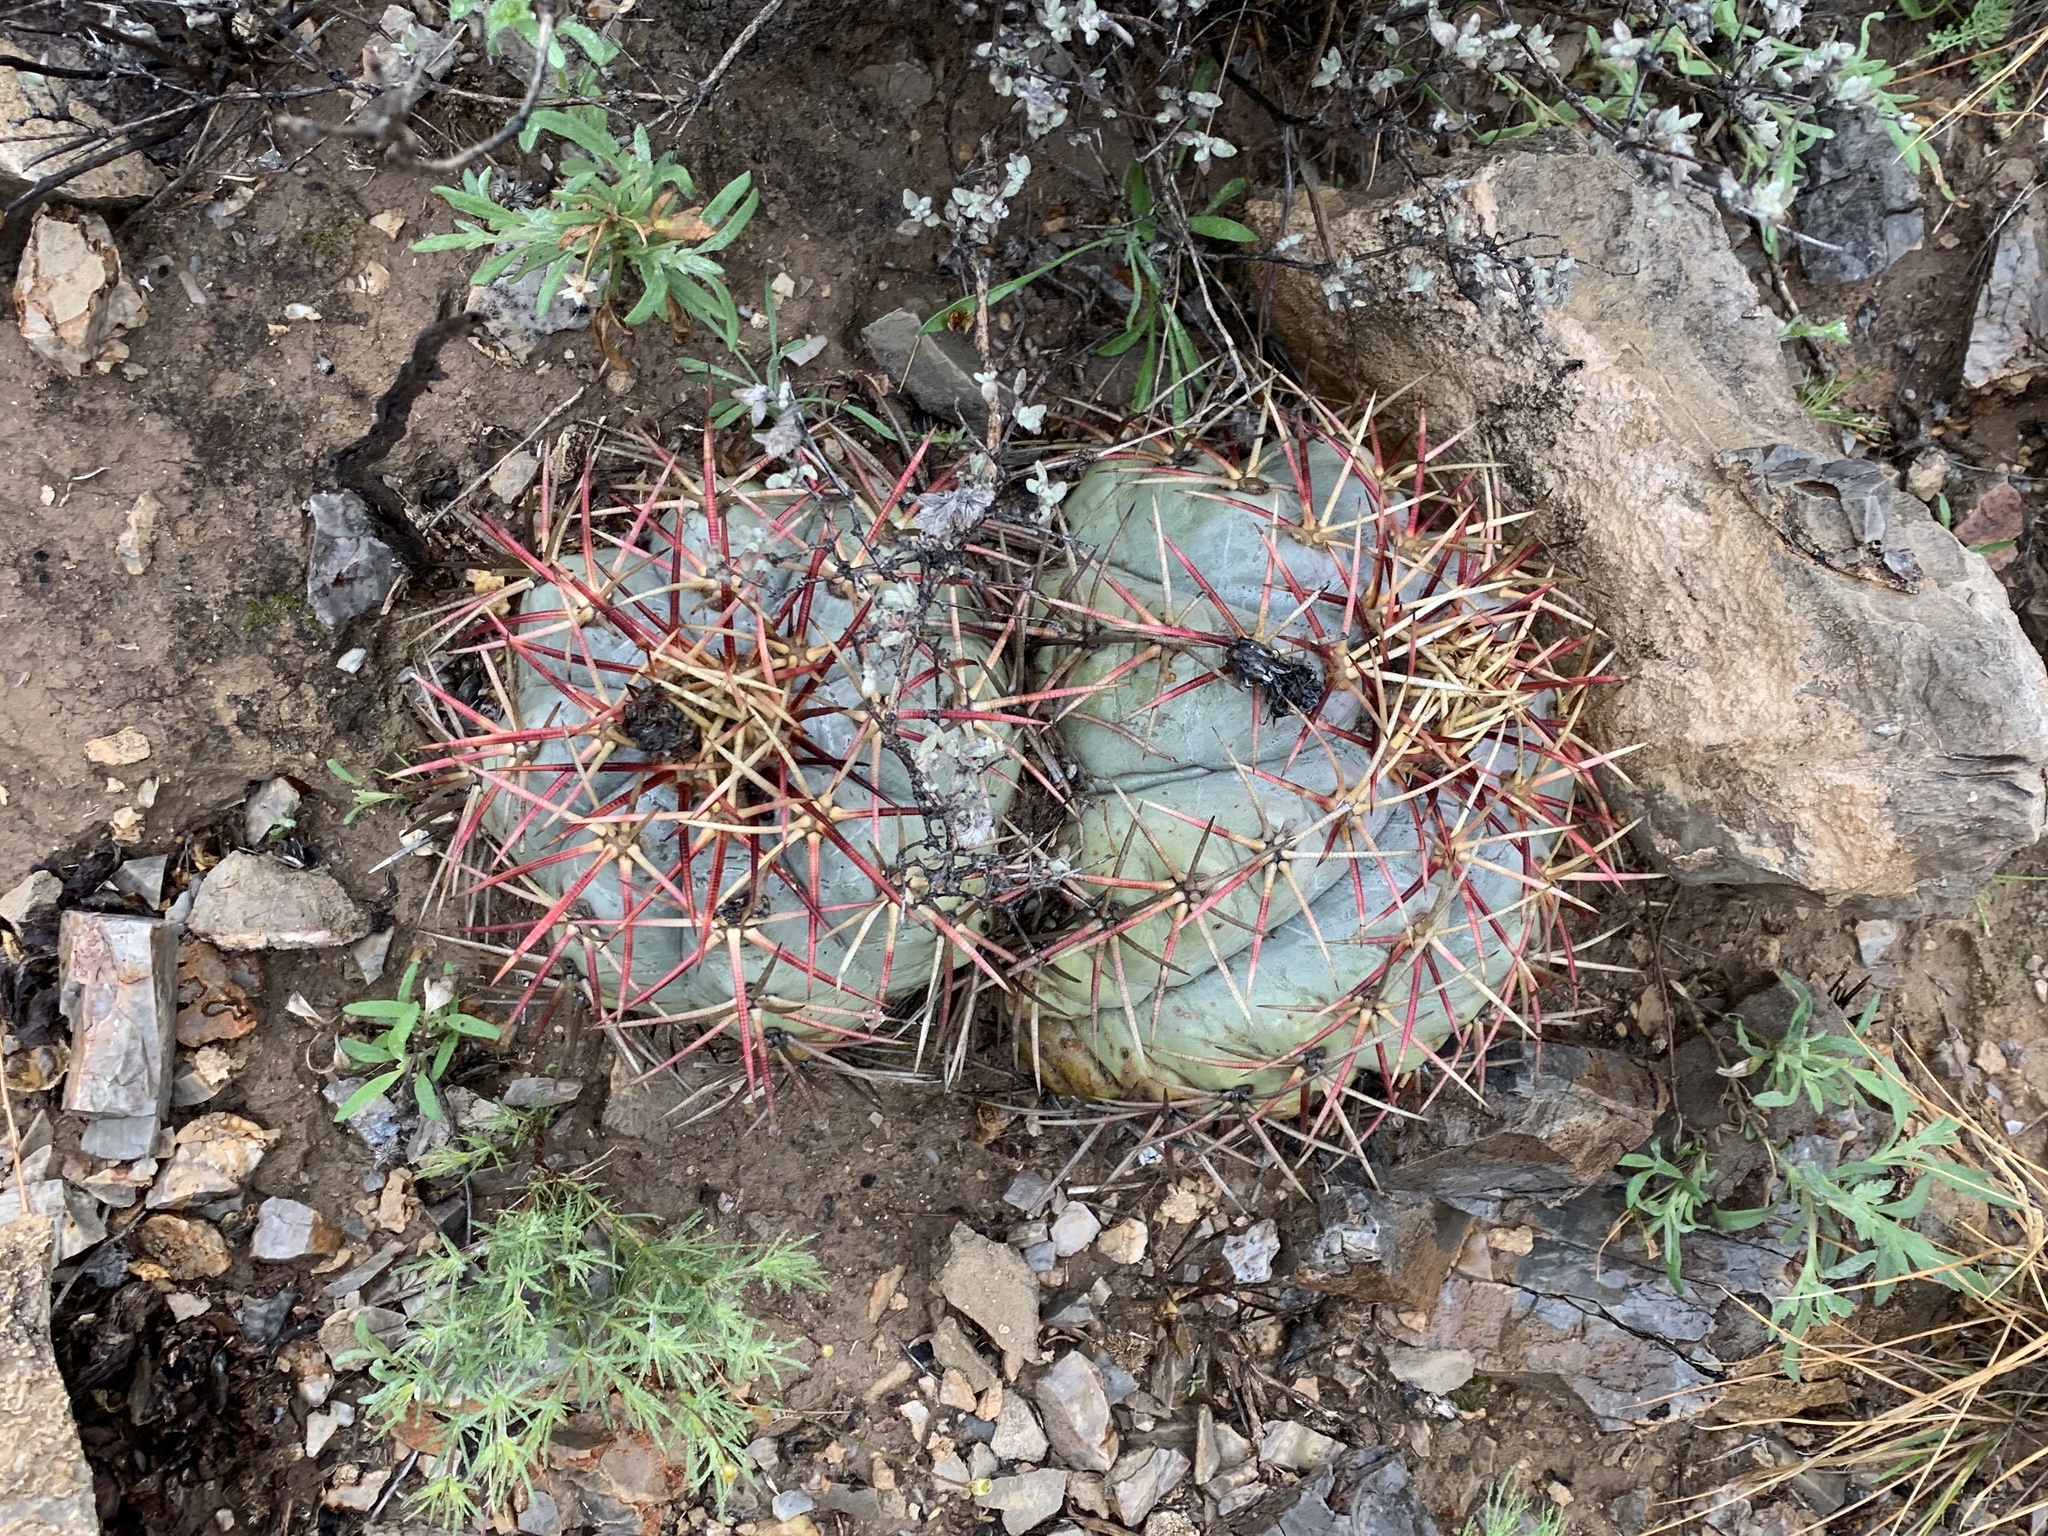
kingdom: Plantae
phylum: Tracheophyta
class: Magnoliopsida
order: Caryophyllales
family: Cactaceae
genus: Echinocactus
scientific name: Echinocactus horizonthalonius
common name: Devilshead
